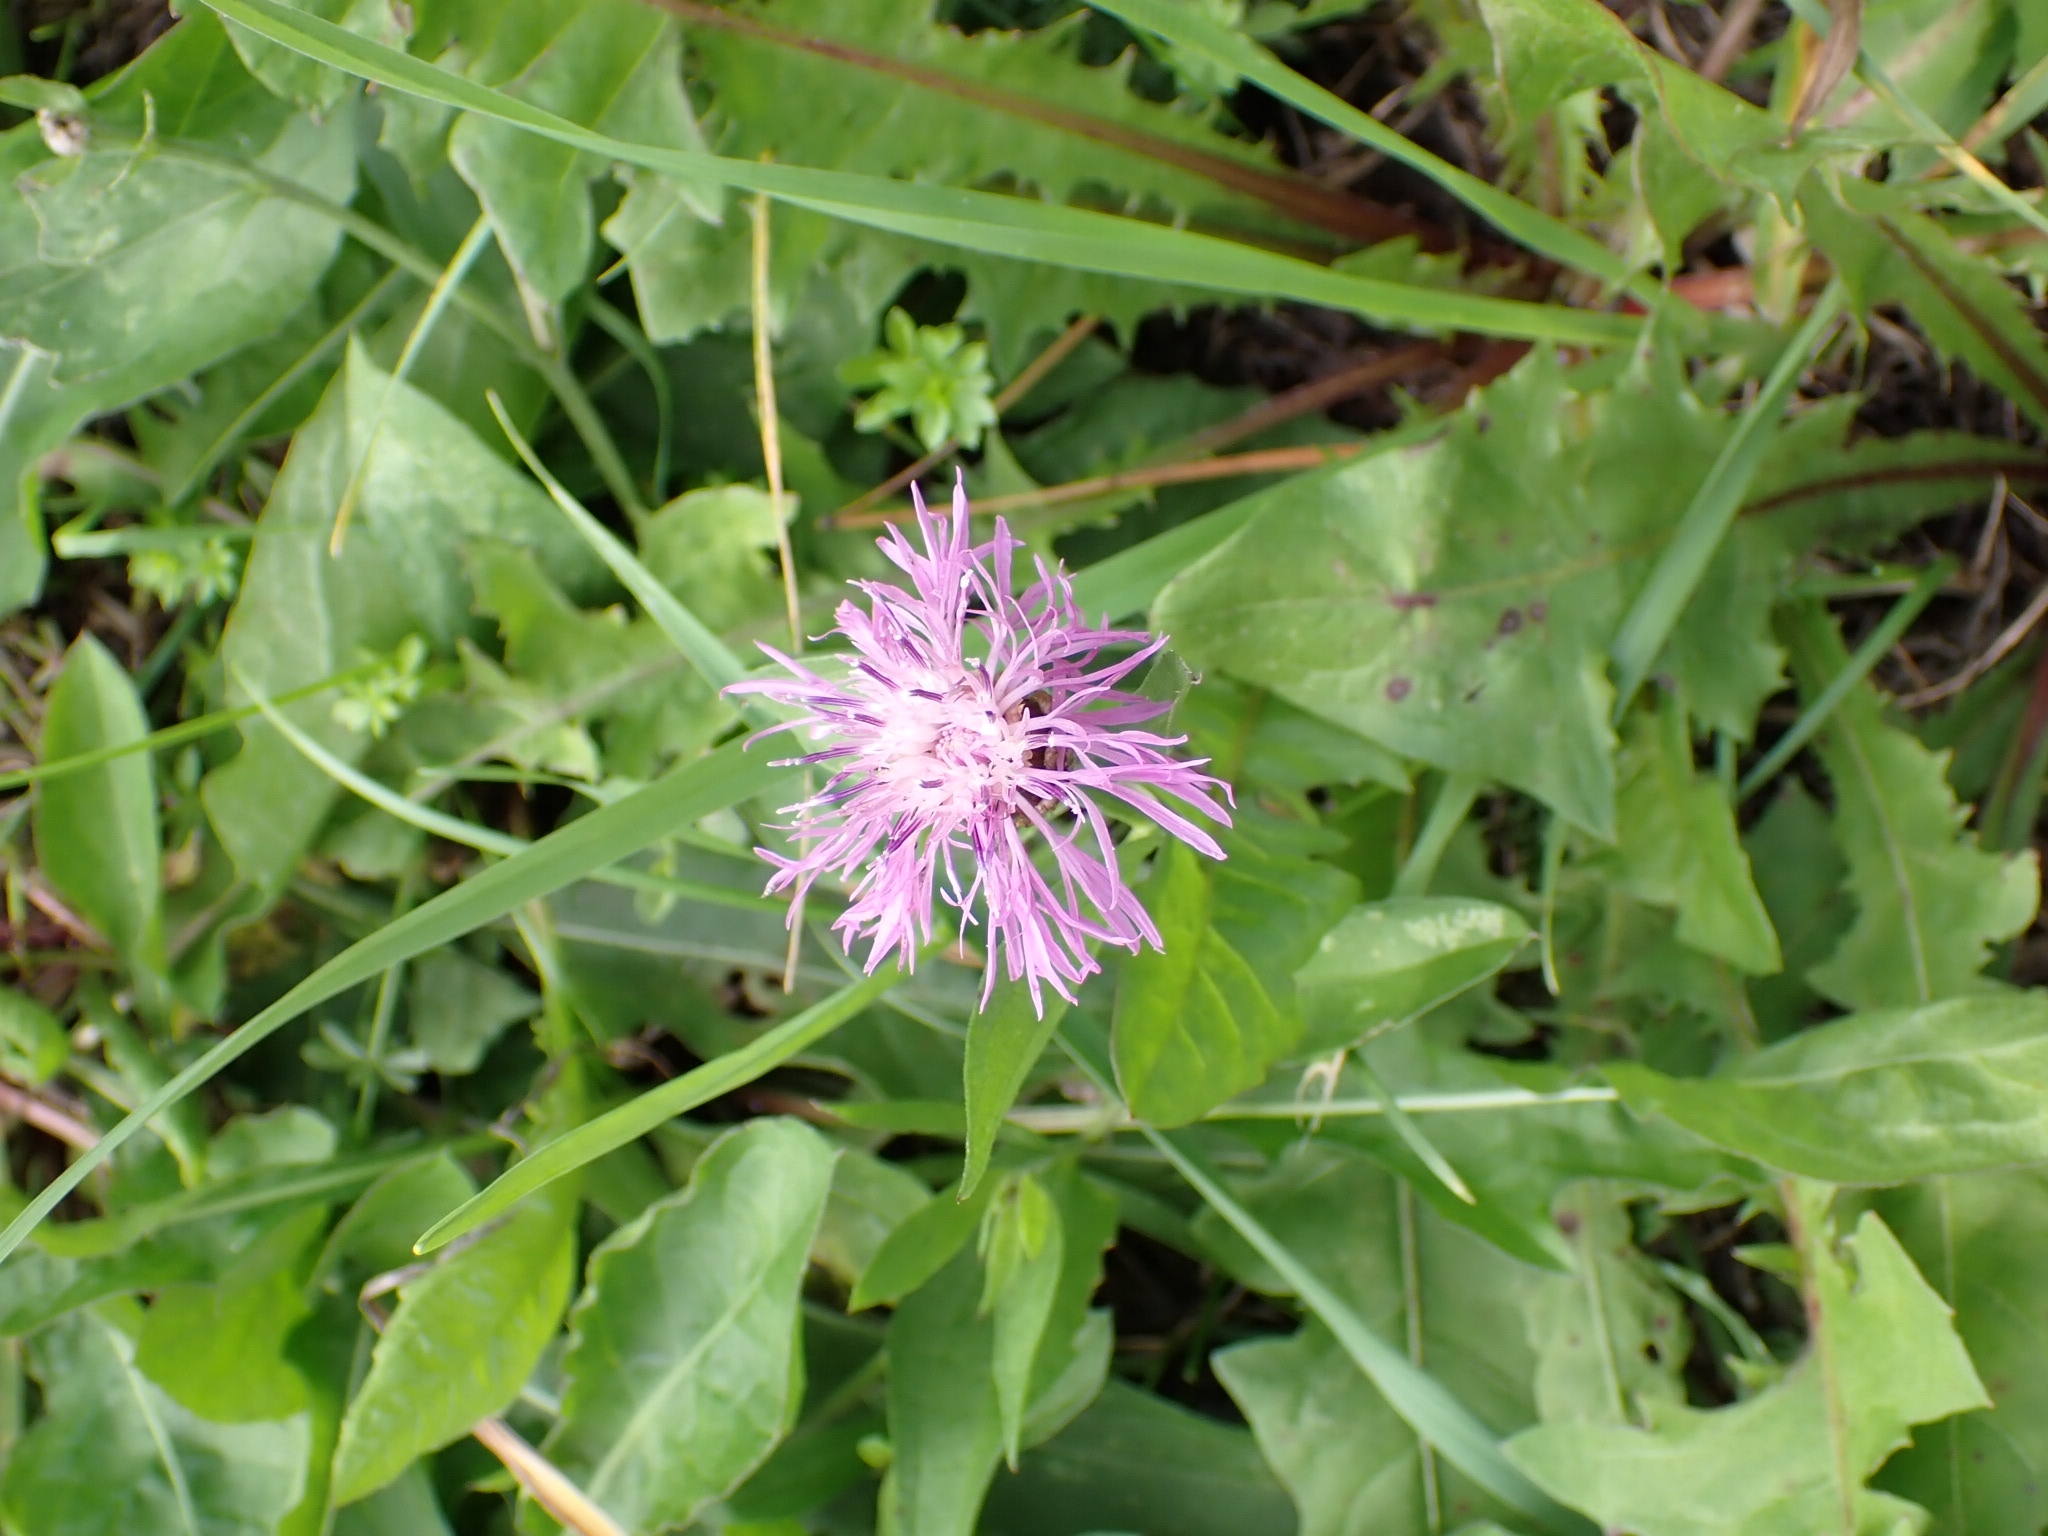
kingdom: Plantae
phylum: Tracheophyta
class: Magnoliopsida
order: Asterales
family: Asteraceae
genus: Centaurea
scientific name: Centaurea jacea
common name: Brown knapweed
